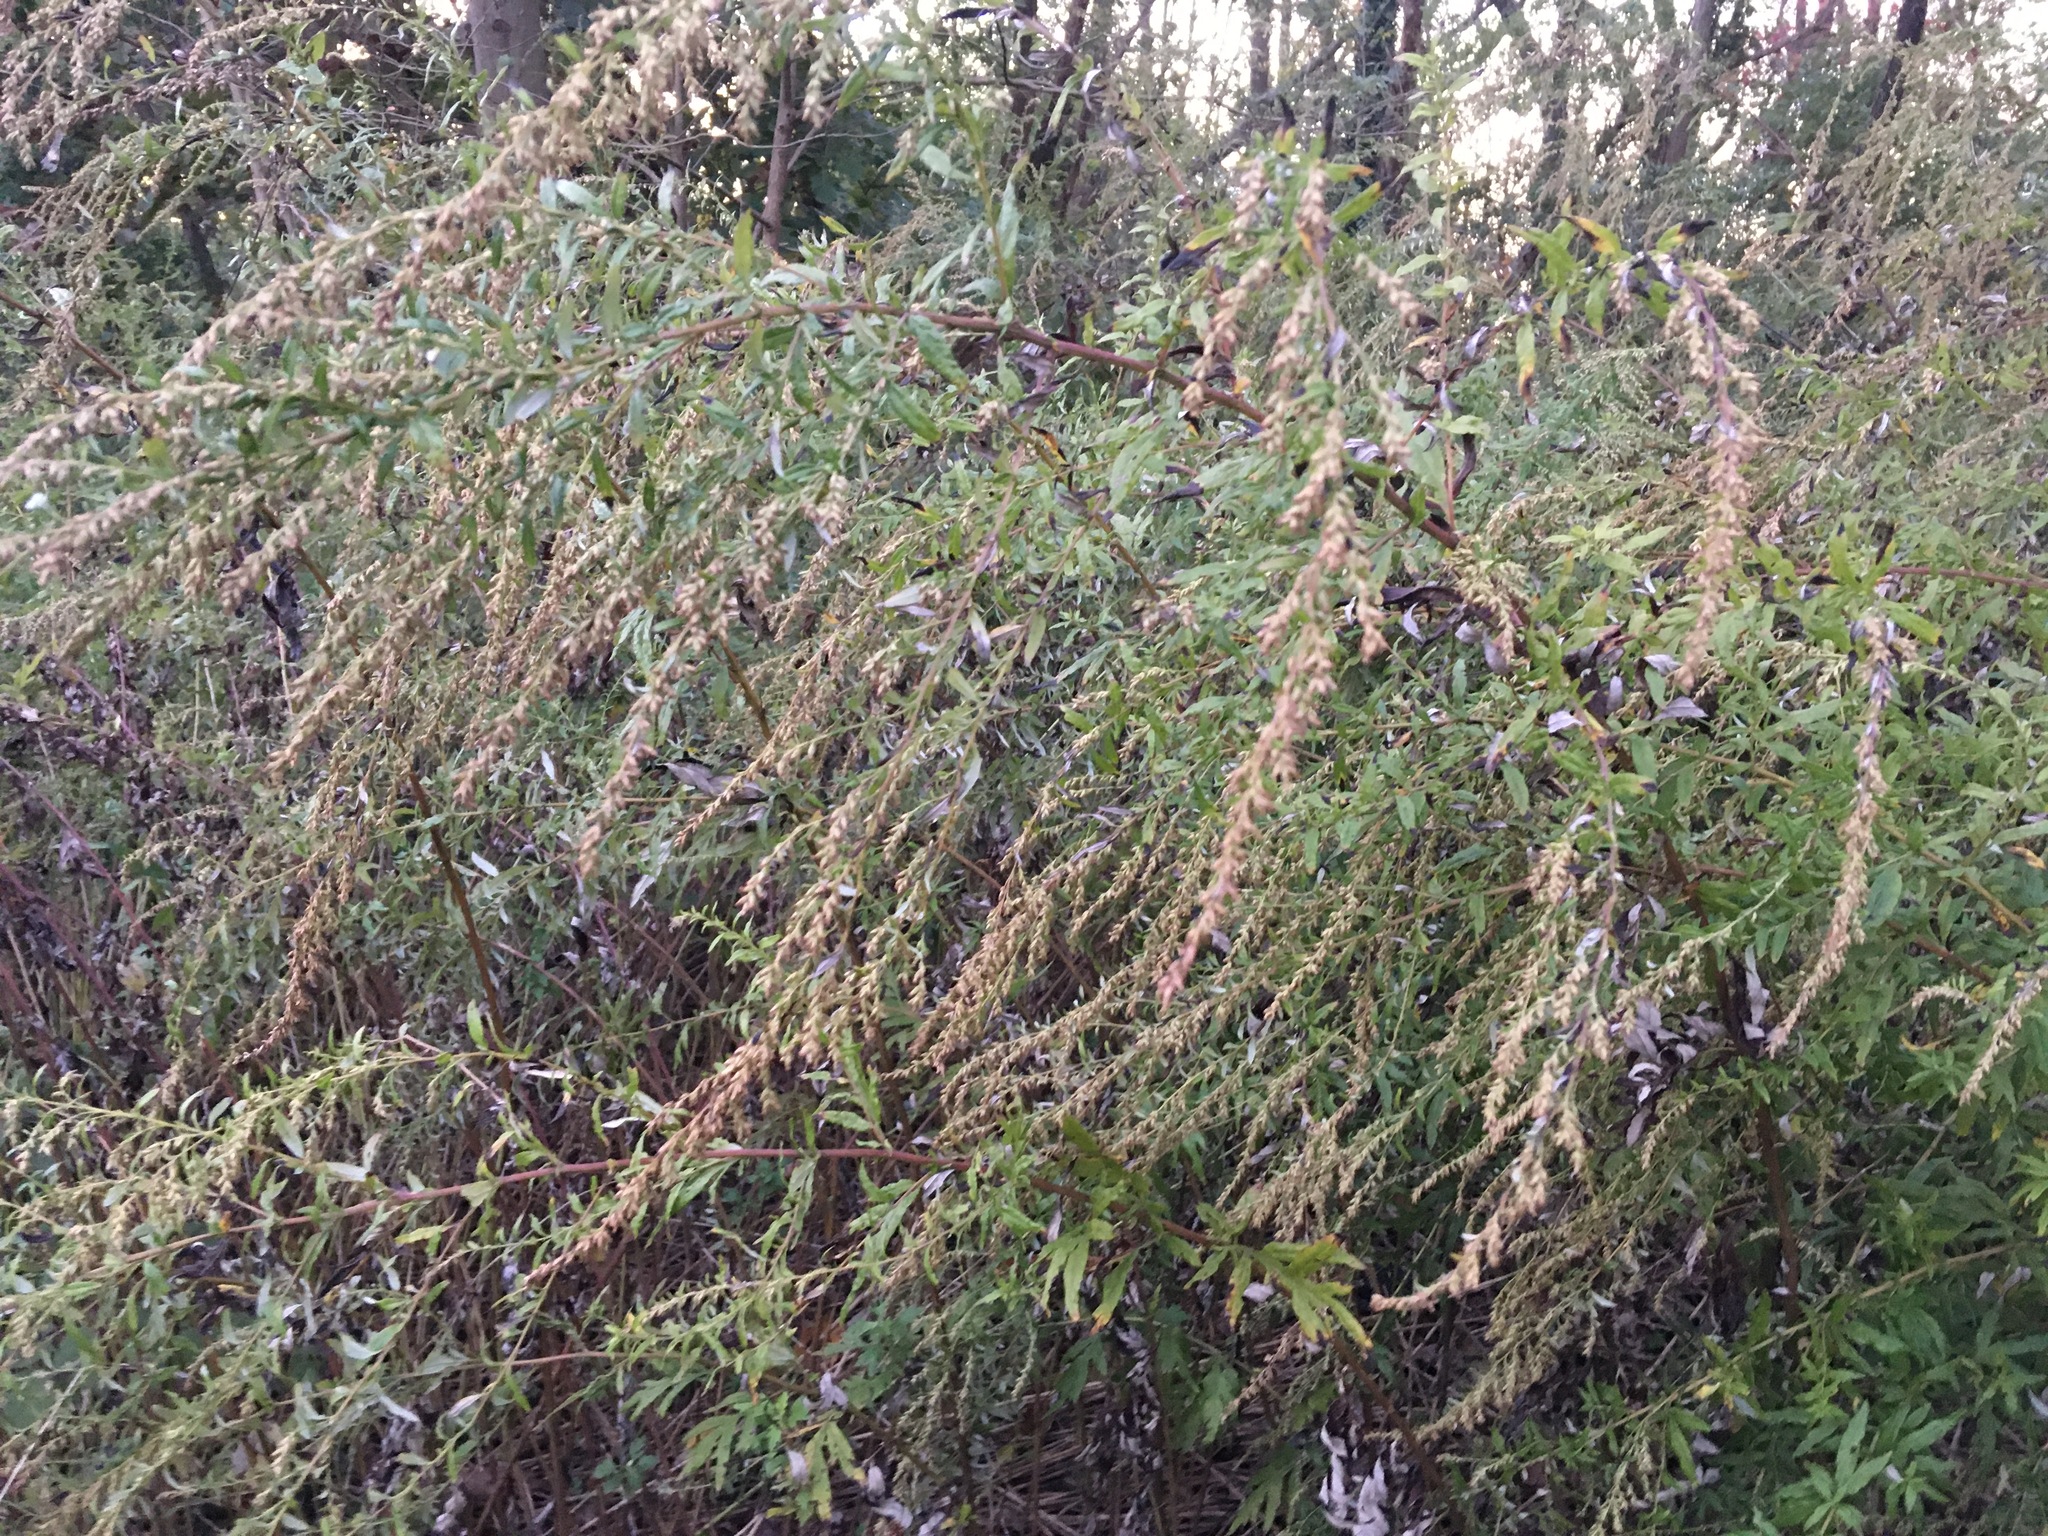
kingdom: Plantae
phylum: Tracheophyta
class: Magnoliopsida
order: Asterales
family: Asteraceae
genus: Artemisia
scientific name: Artemisia vulgaris
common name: Mugwort
